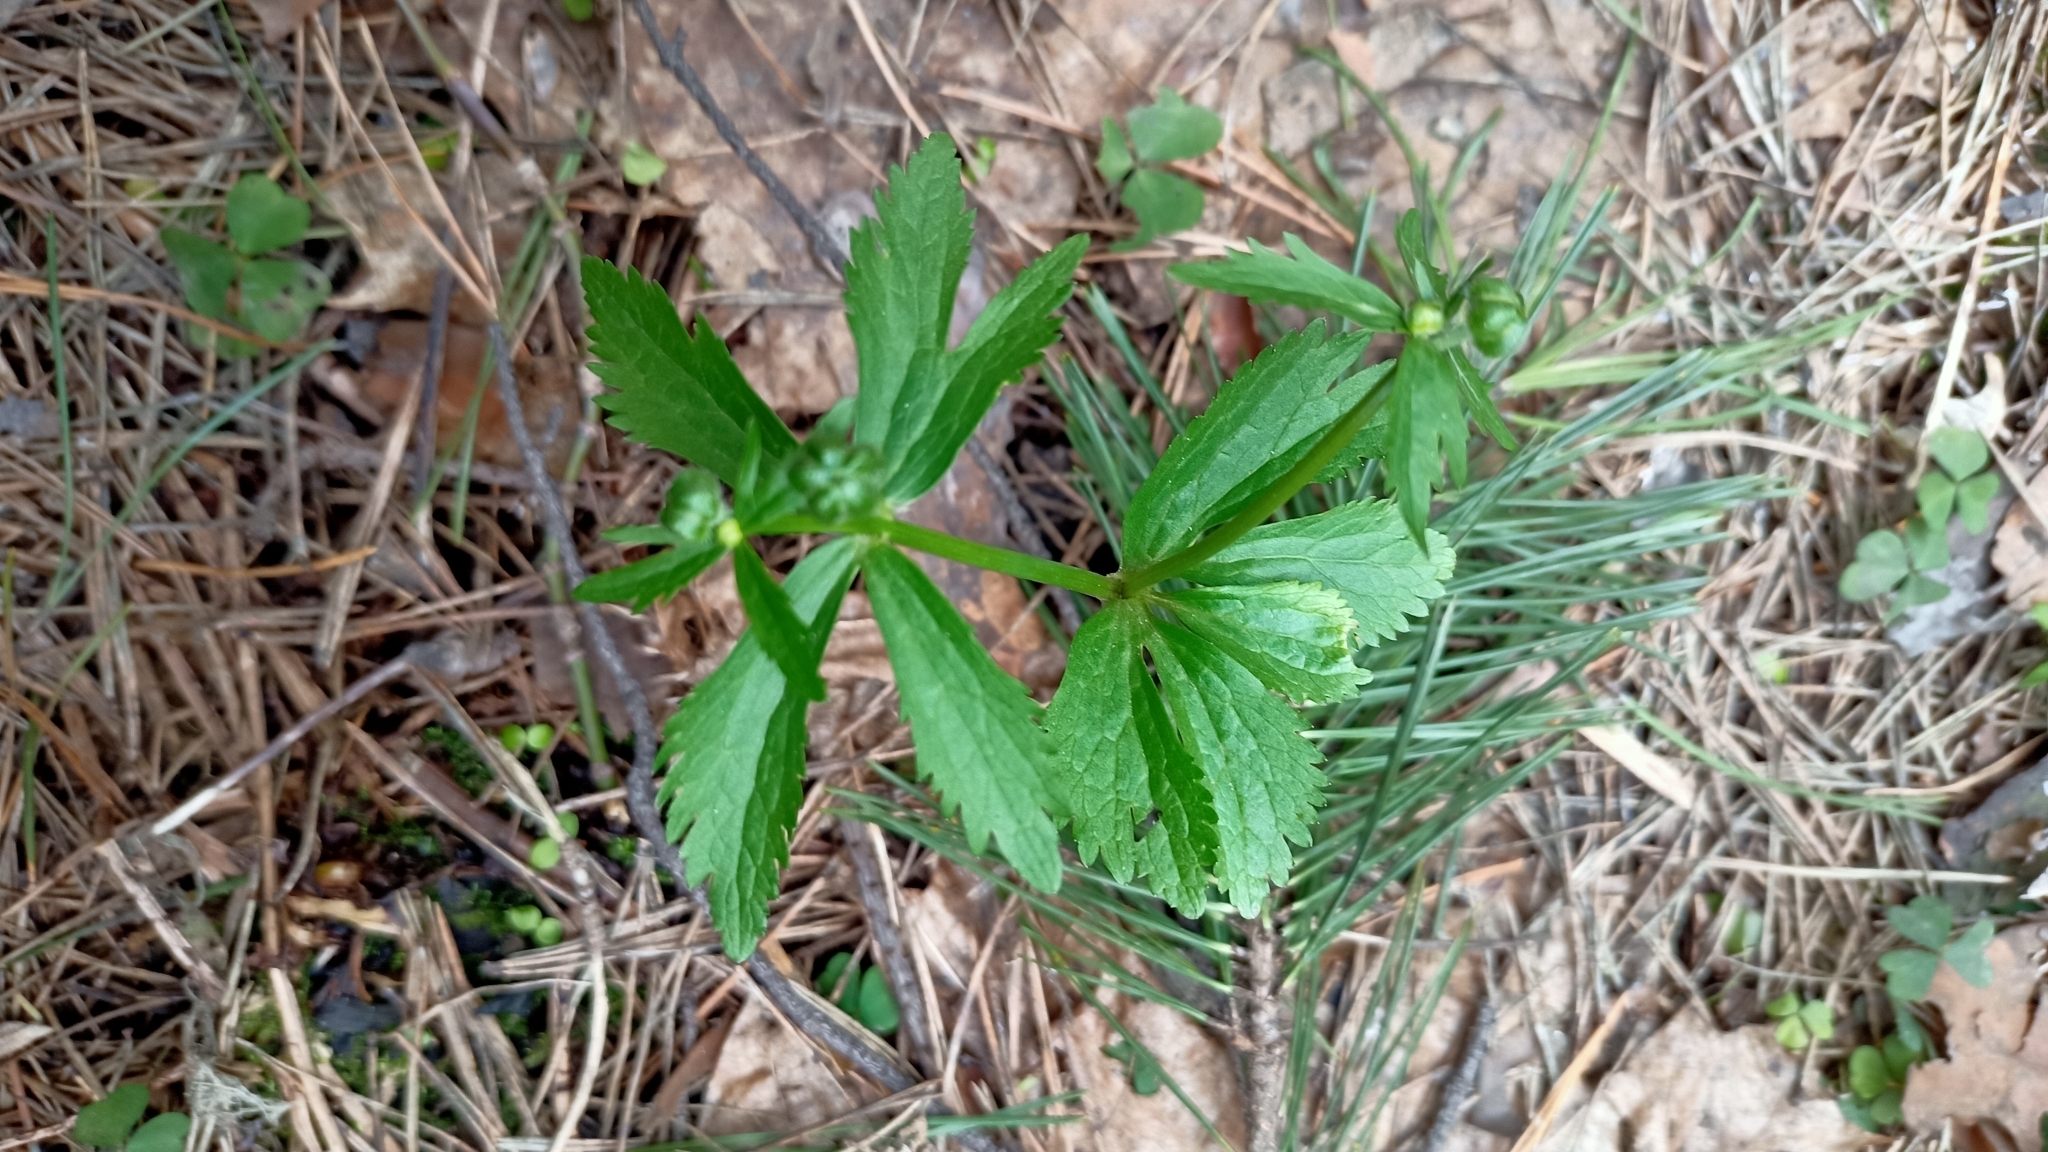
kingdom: Plantae
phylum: Tracheophyta
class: Magnoliopsida
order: Ranunculales
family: Ranunculaceae
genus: Ranunculus
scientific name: Ranunculus cassubicus
